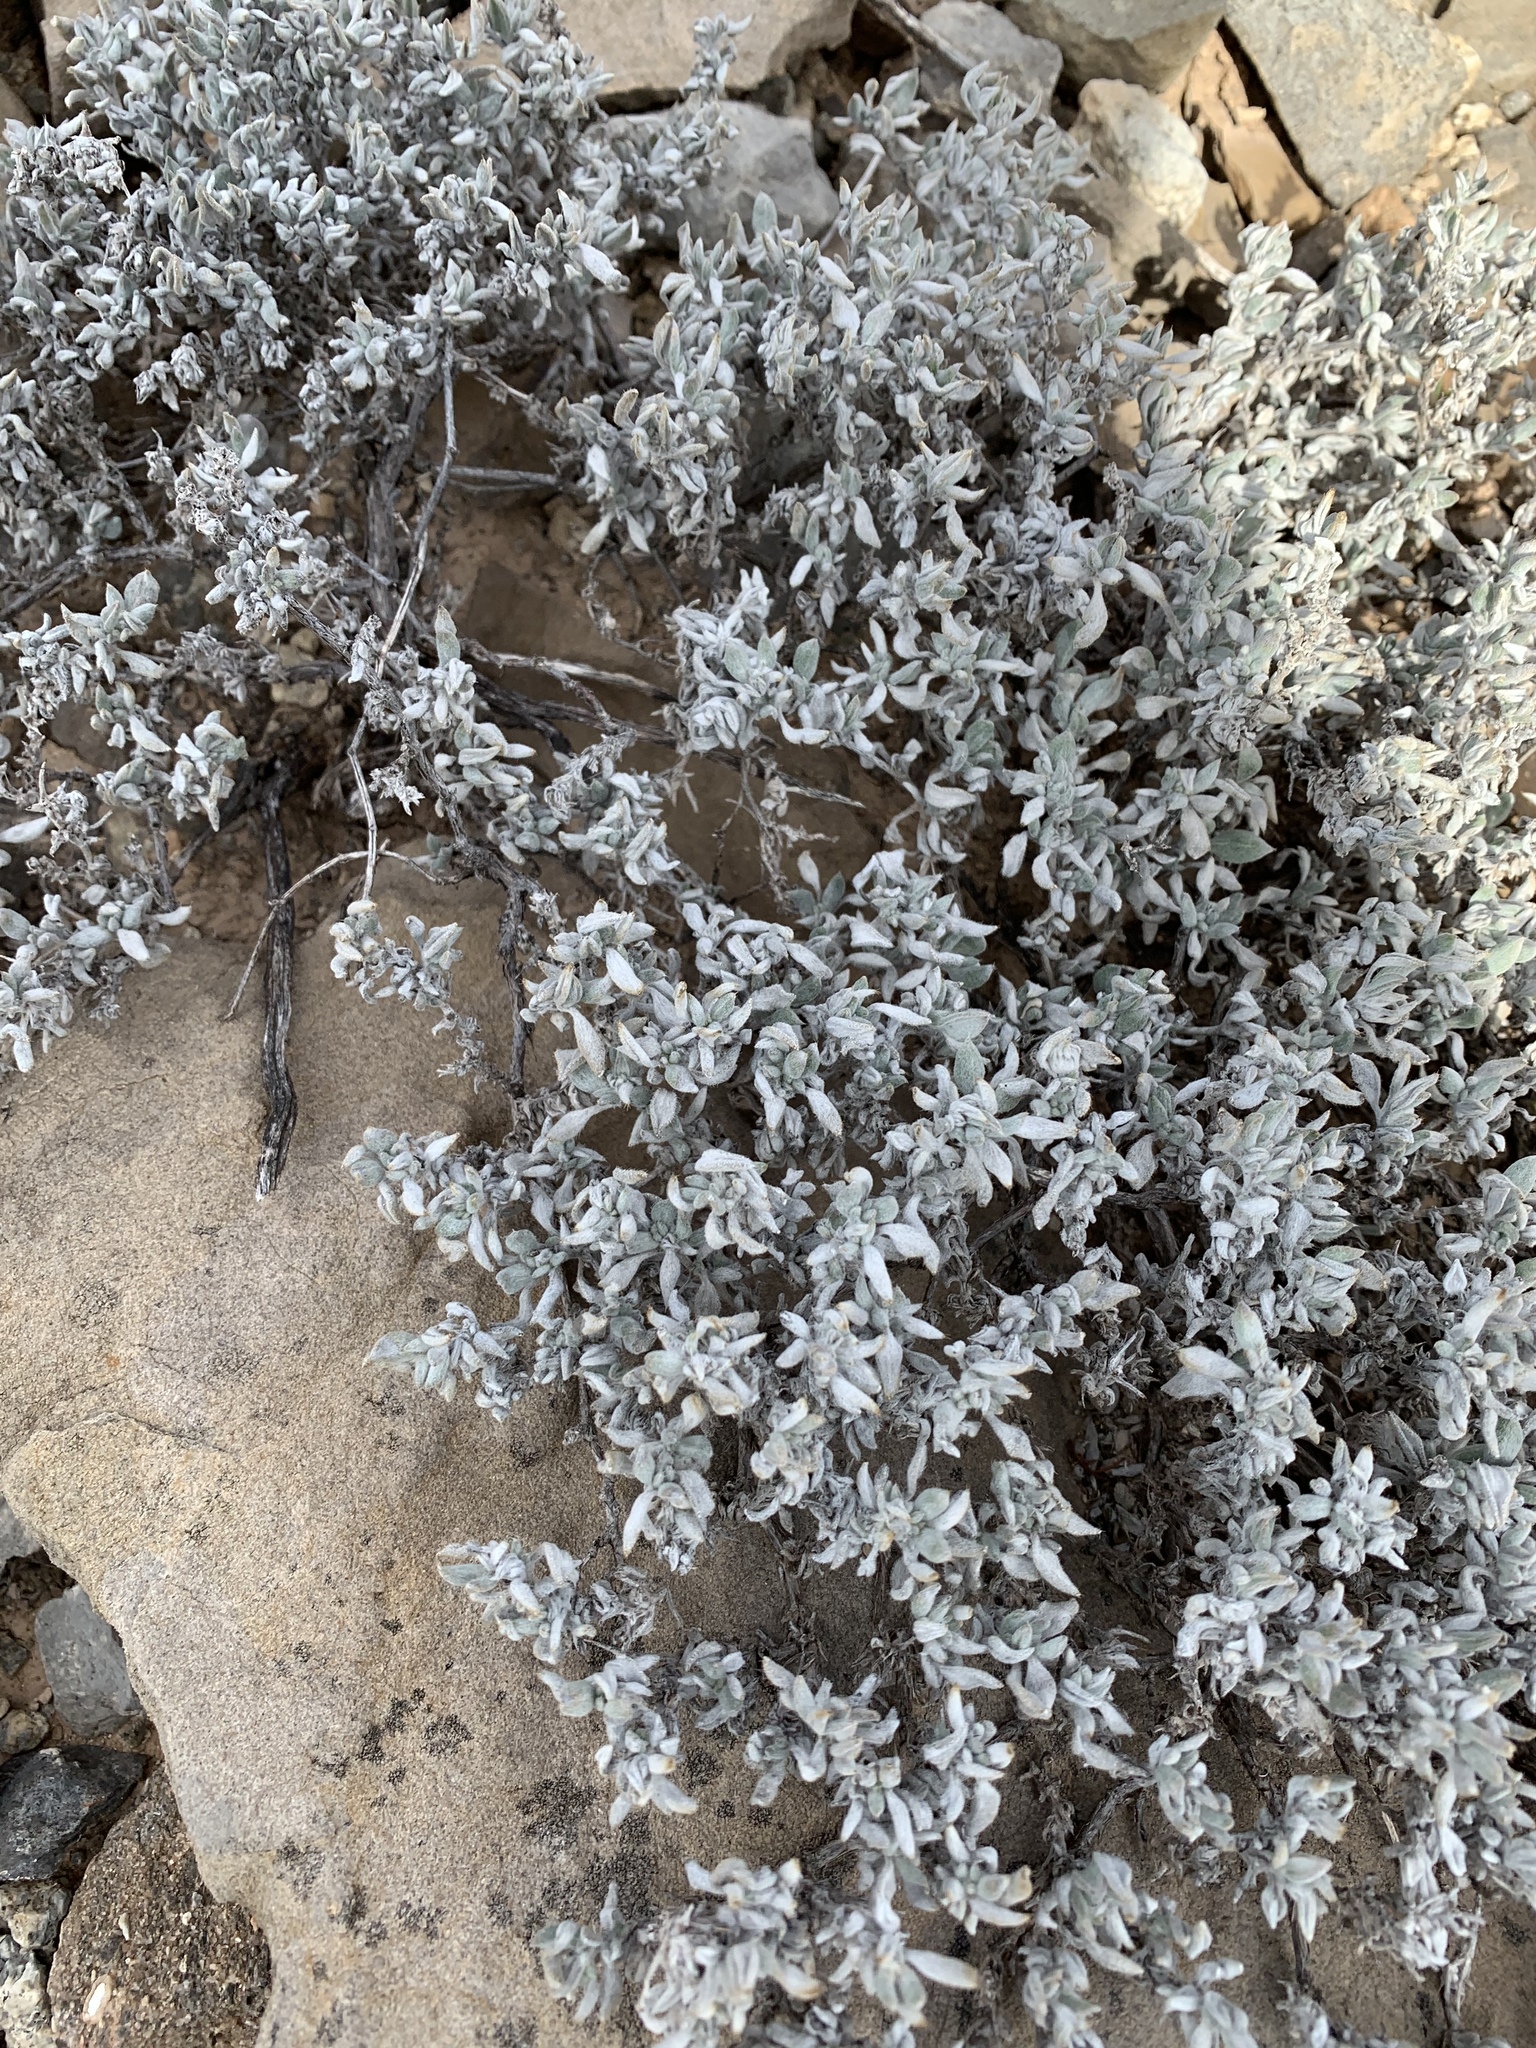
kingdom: Plantae
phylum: Tracheophyta
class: Magnoliopsida
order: Boraginales
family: Ehretiaceae
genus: Tiquilia
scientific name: Tiquilia canescens
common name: Hairy tiquilia
